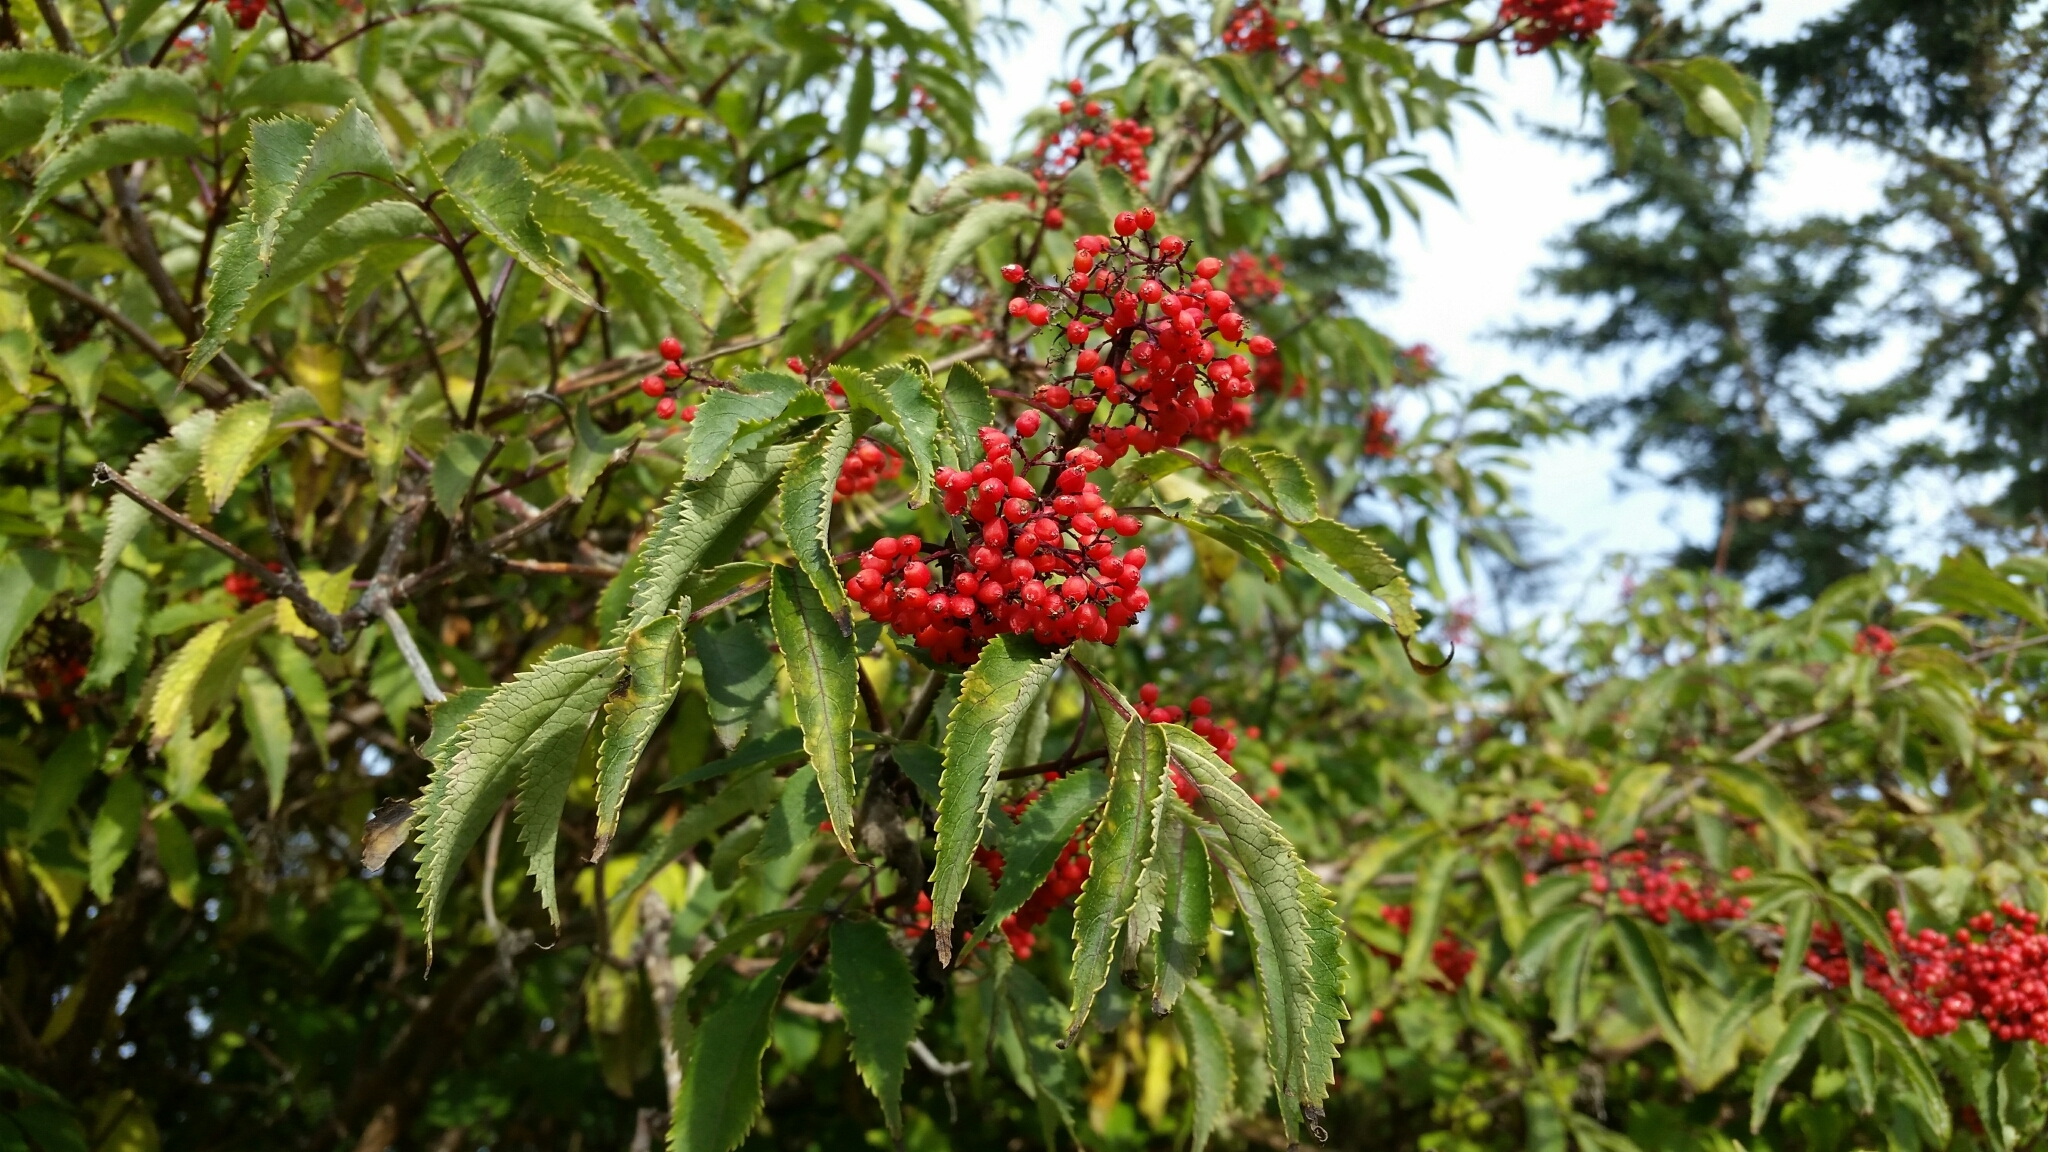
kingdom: Plantae
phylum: Tracheophyta
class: Magnoliopsida
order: Dipsacales
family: Viburnaceae
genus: Sambucus
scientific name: Sambucus racemosa
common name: Red-berried elder
